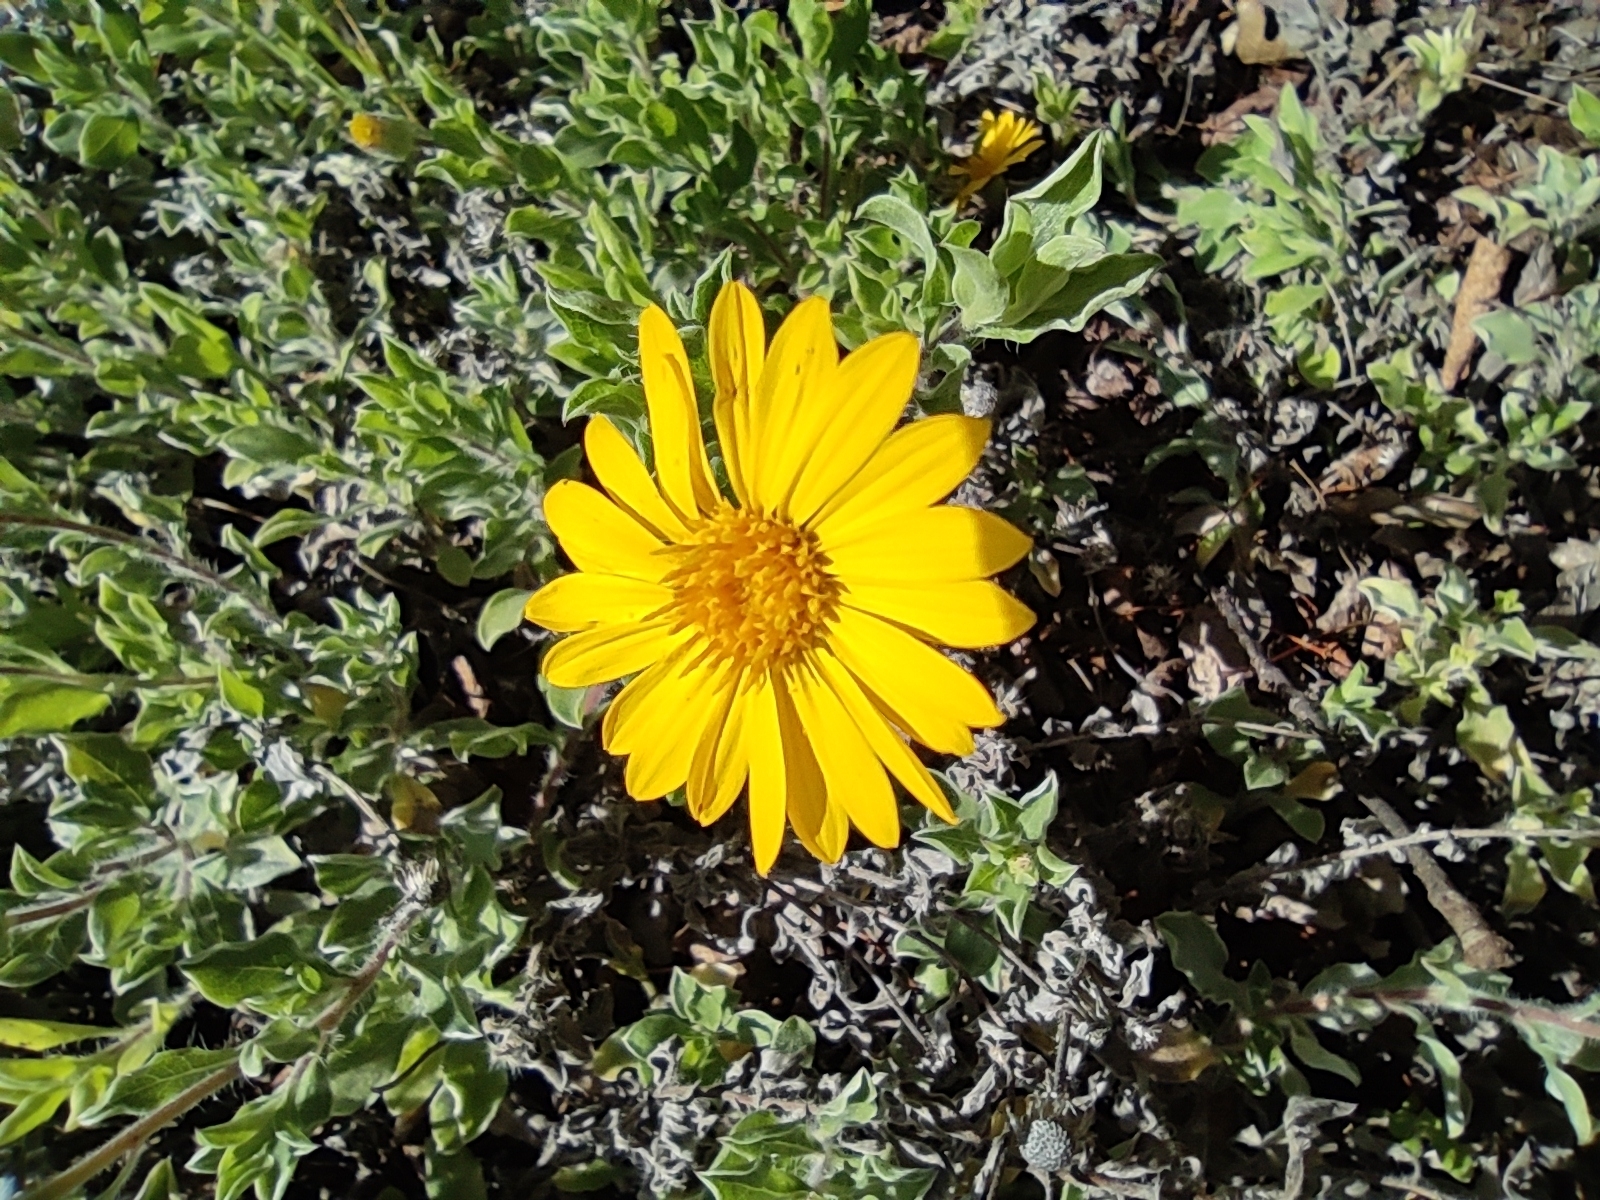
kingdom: Plantae
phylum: Tracheophyta
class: Magnoliopsida
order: Asterales
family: Asteraceae
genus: Heterotheca
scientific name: Heterotheca mucronata
